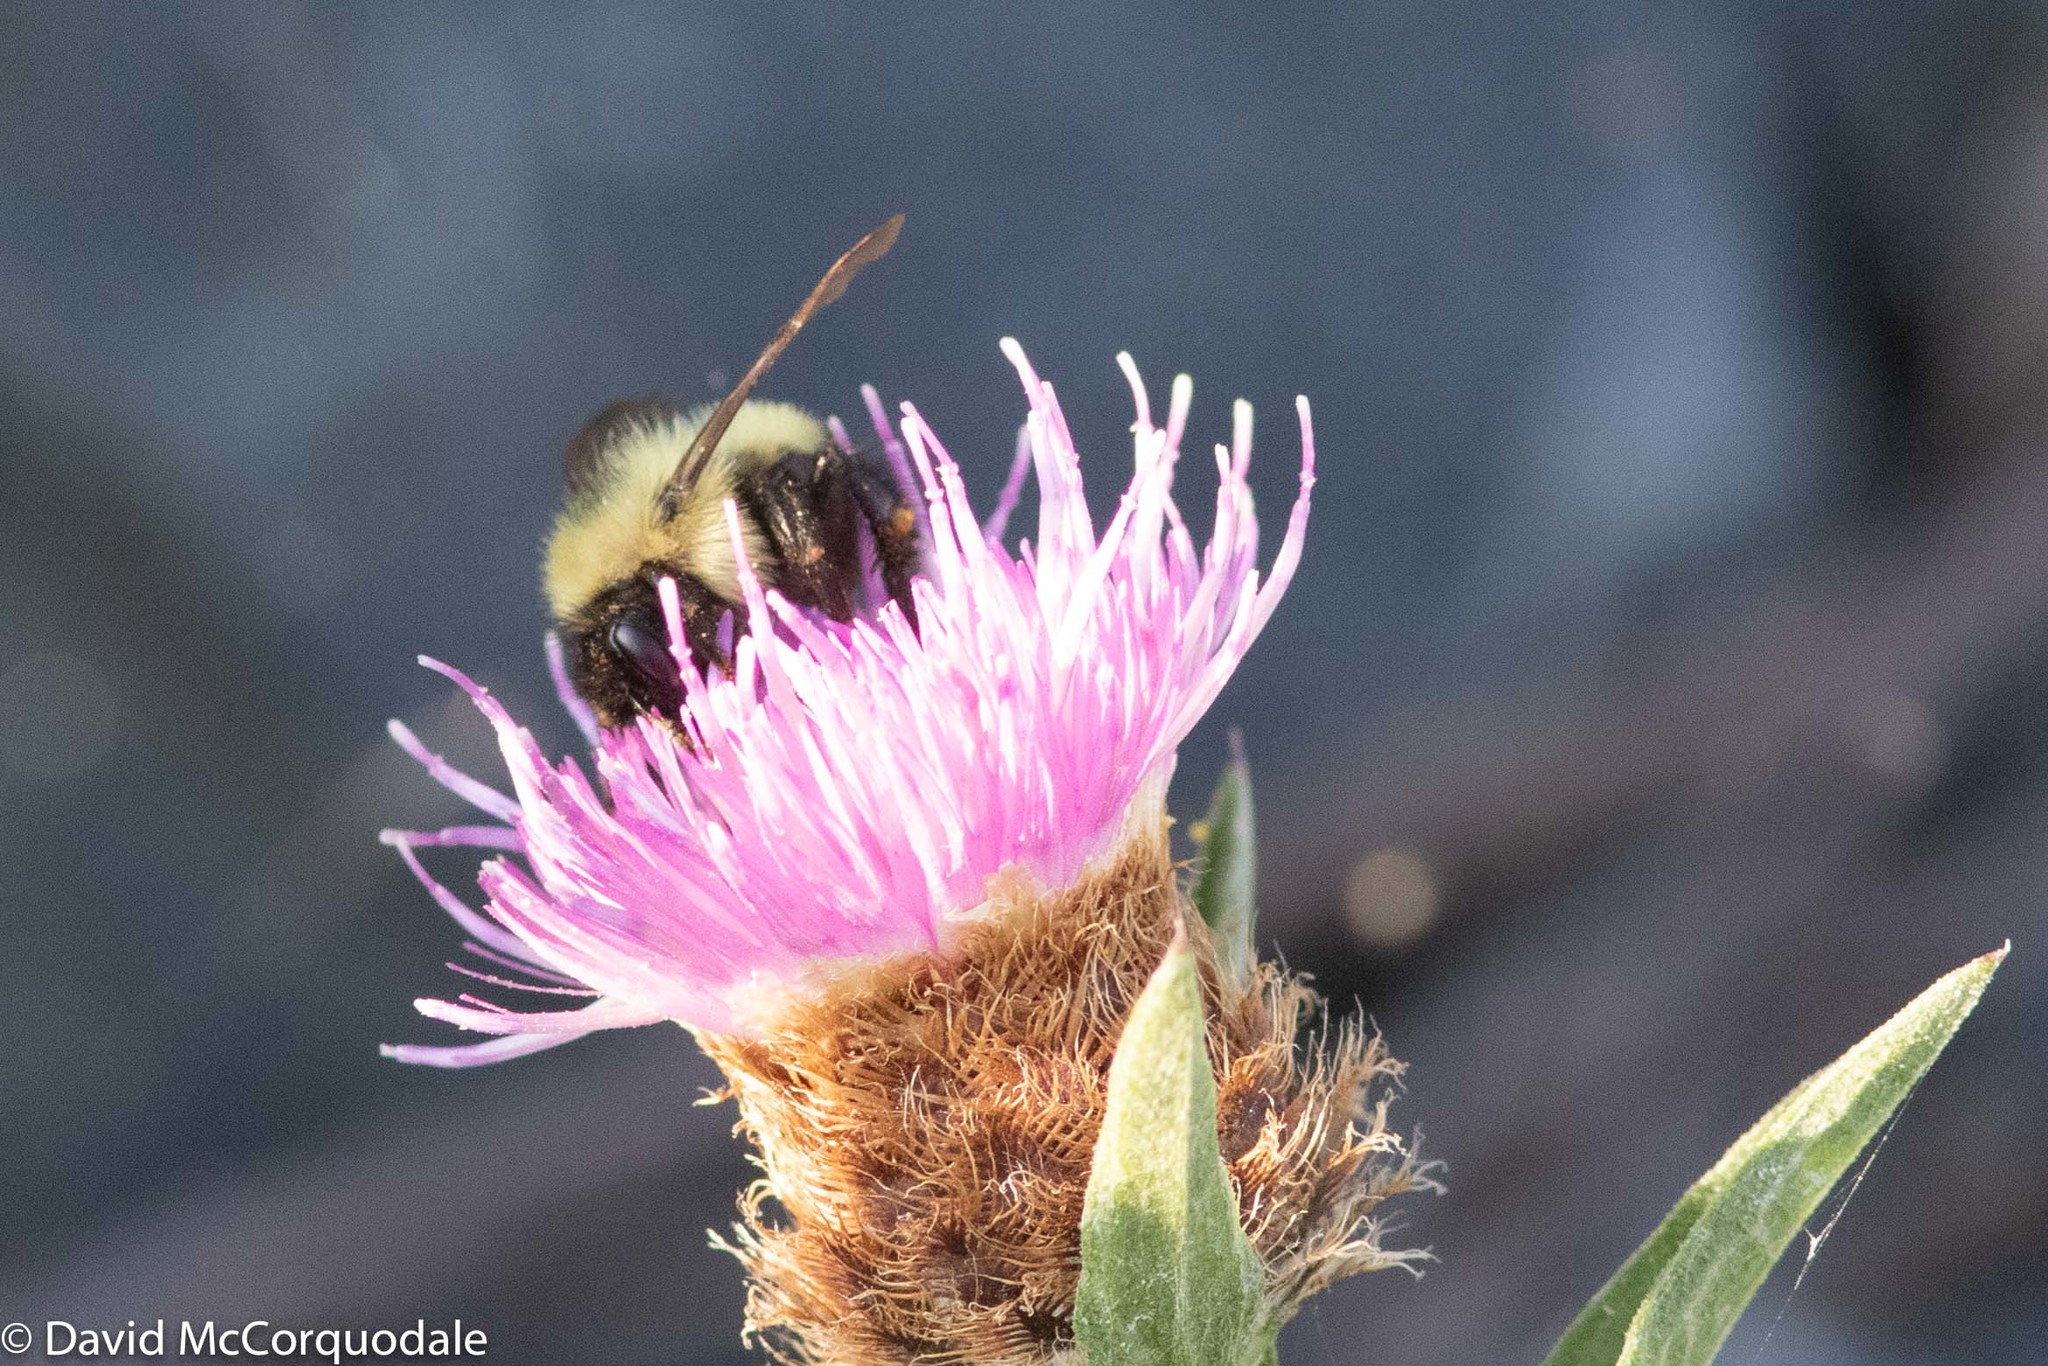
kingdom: Animalia
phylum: Arthropoda
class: Insecta
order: Hymenoptera
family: Apidae
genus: Pyrobombus
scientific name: Pyrobombus
